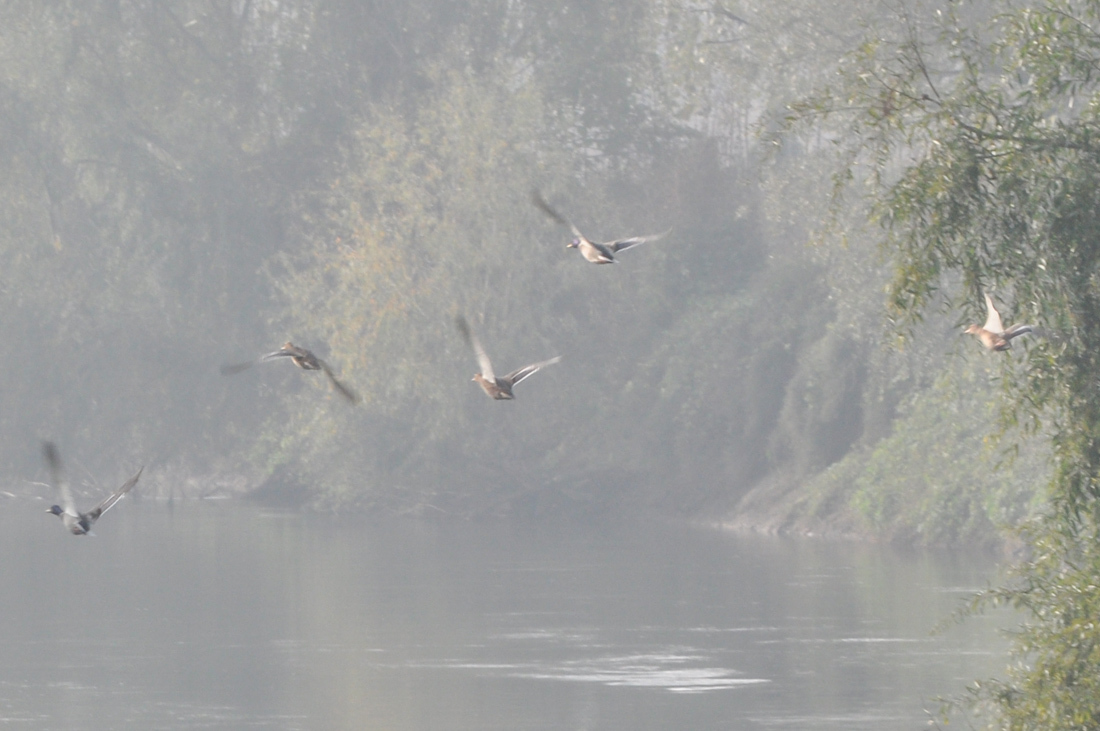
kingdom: Animalia
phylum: Chordata
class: Aves
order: Anseriformes
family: Anatidae
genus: Anas
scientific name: Anas platyrhynchos
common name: Mallard
